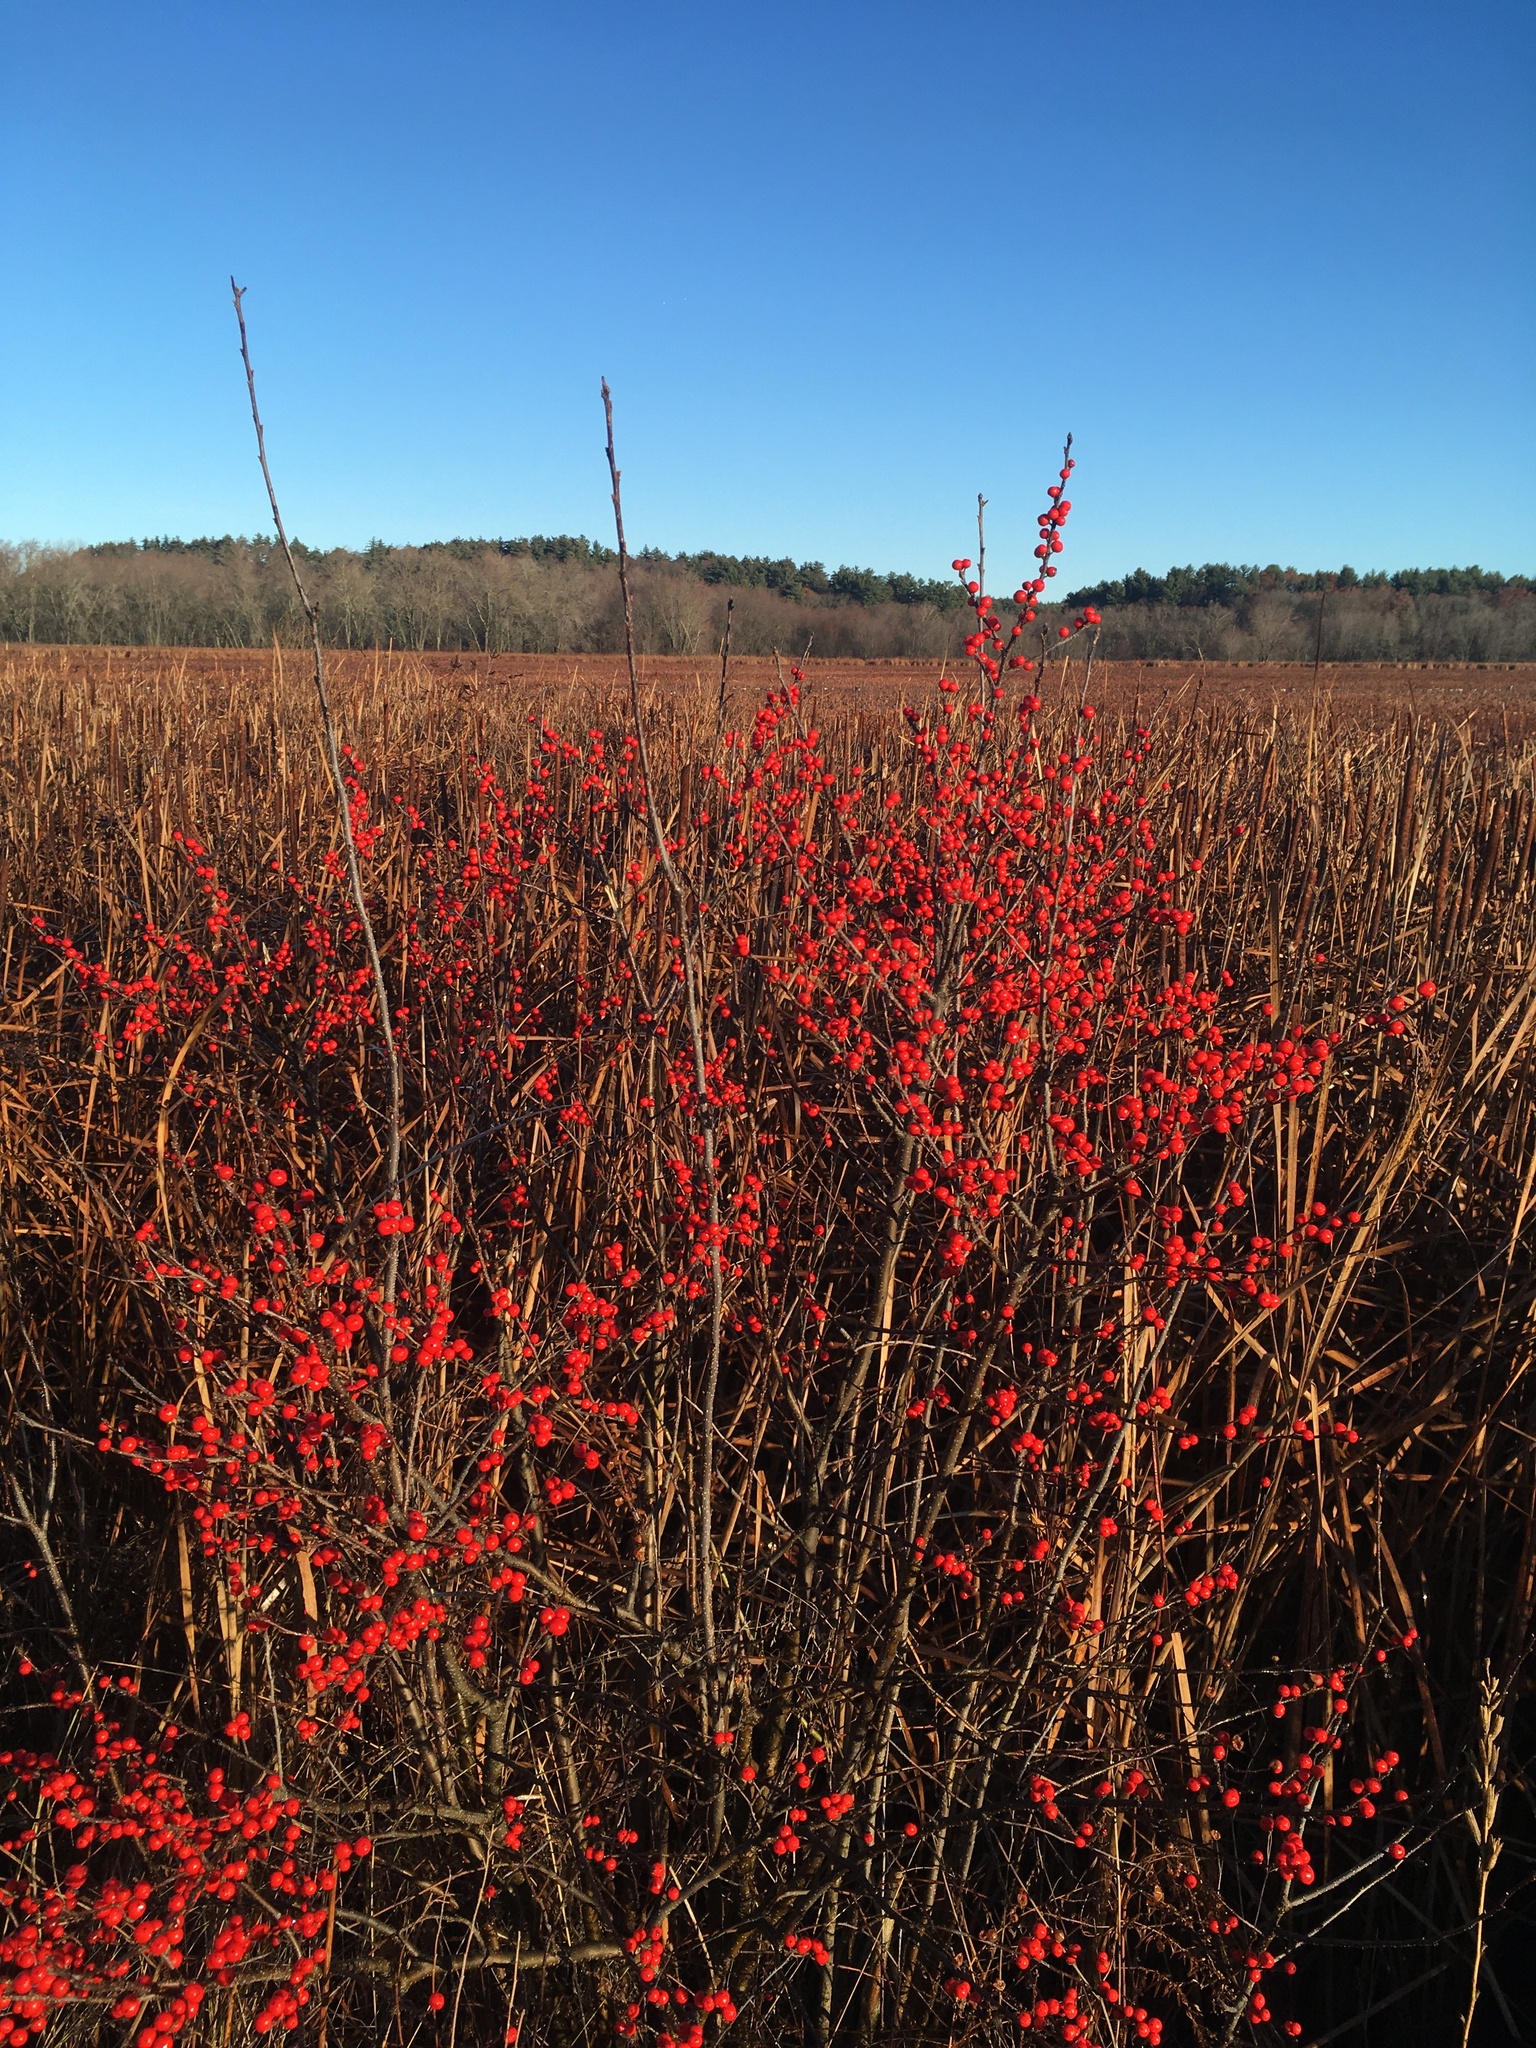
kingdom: Plantae
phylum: Tracheophyta
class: Magnoliopsida
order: Aquifoliales
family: Aquifoliaceae
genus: Ilex
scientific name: Ilex verticillata
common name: Virginia winterberry
